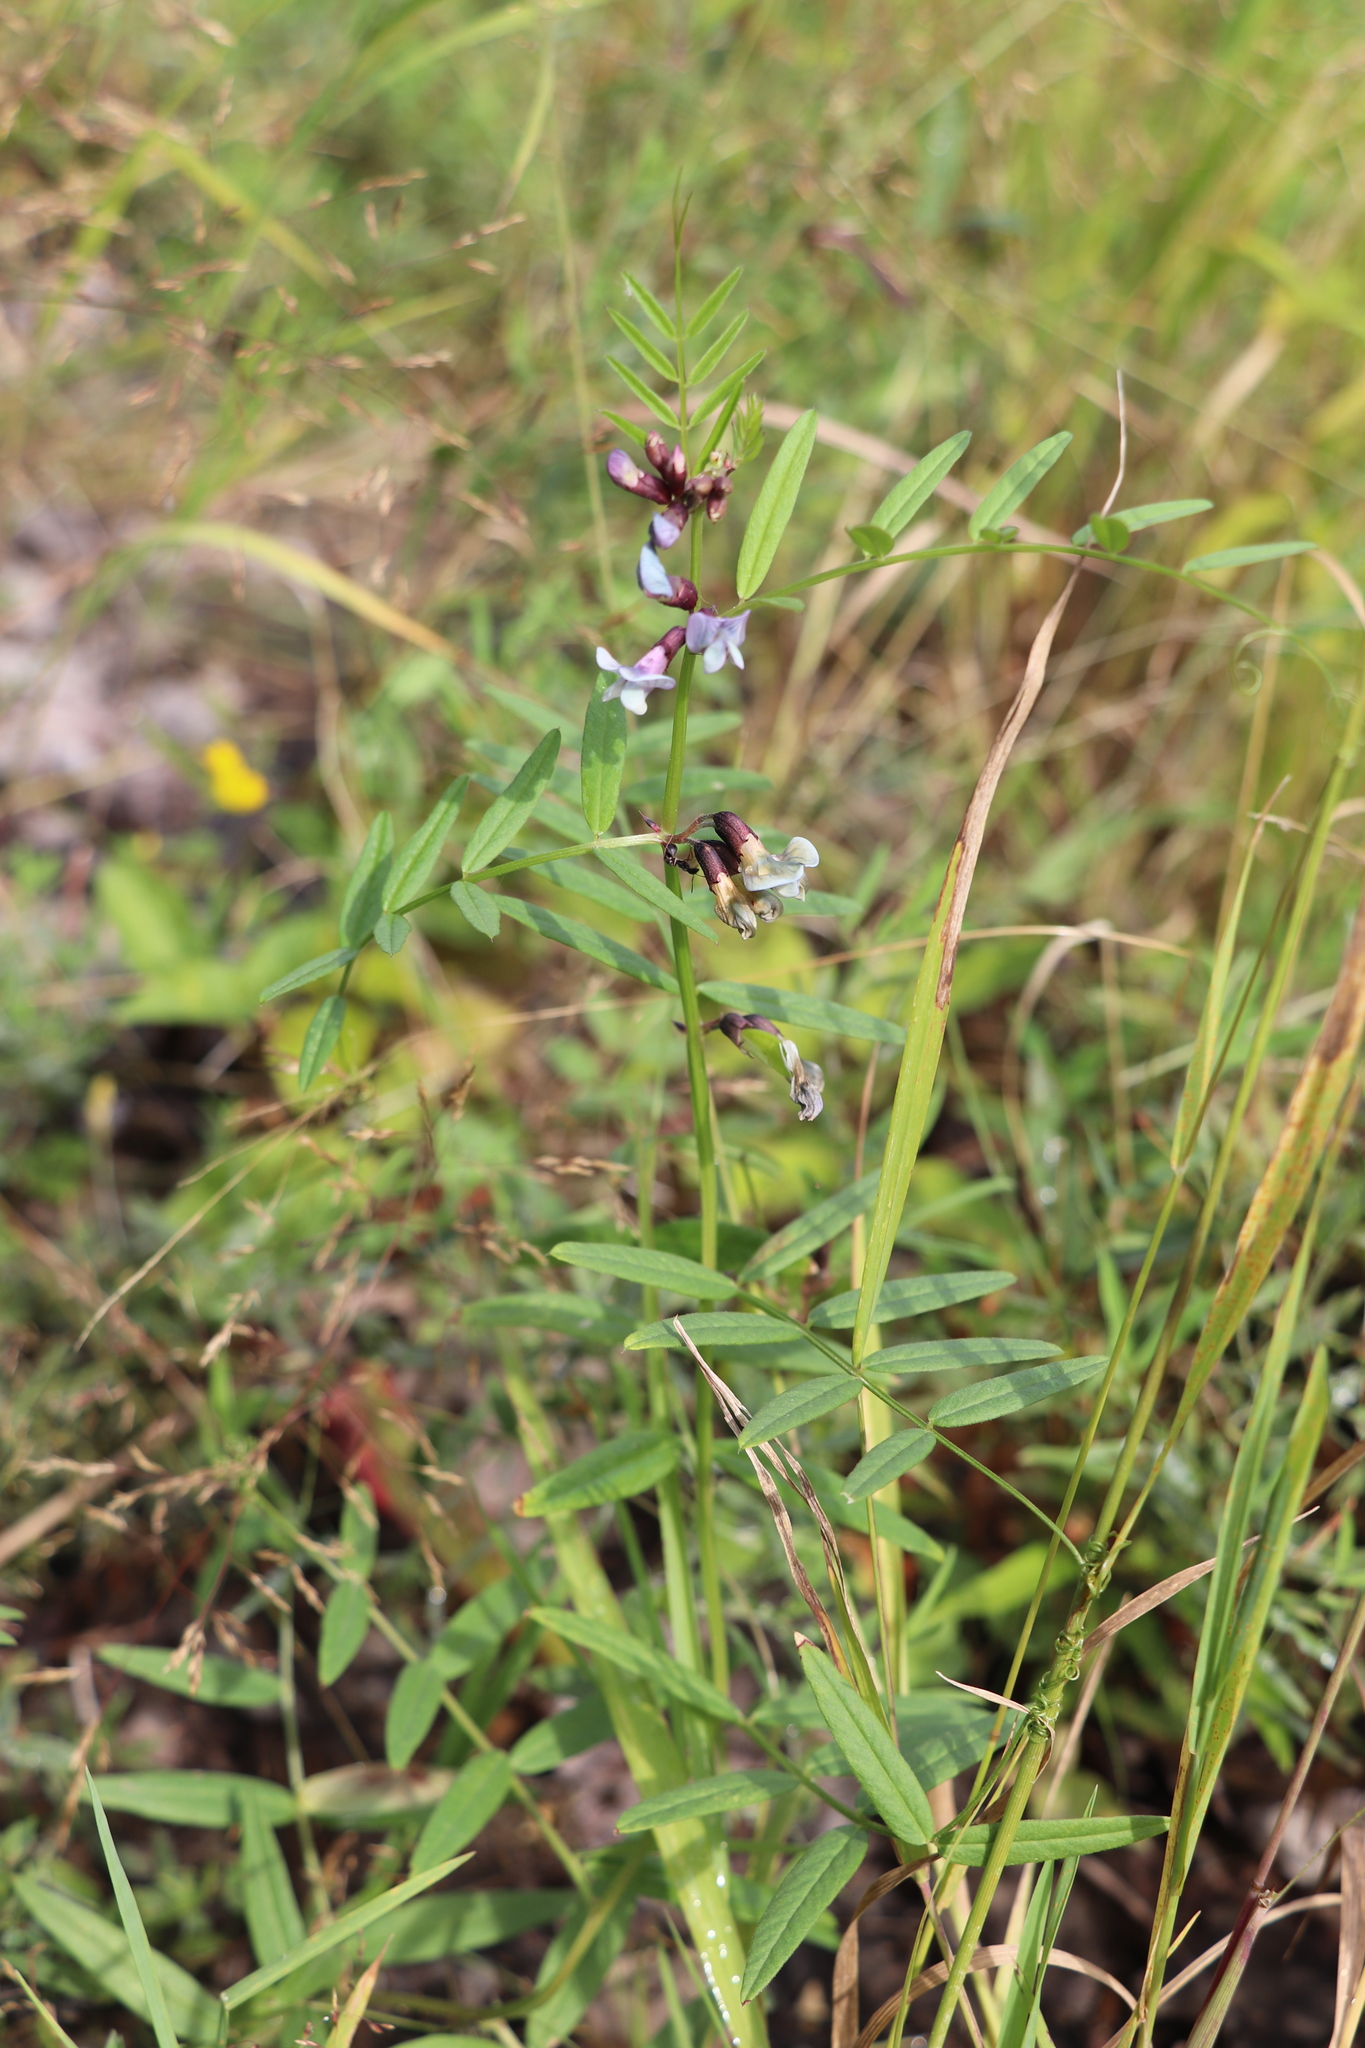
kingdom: Plantae
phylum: Tracheophyta
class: Magnoliopsida
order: Fabales
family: Fabaceae
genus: Vicia
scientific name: Vicia sepium
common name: Bush vetch
